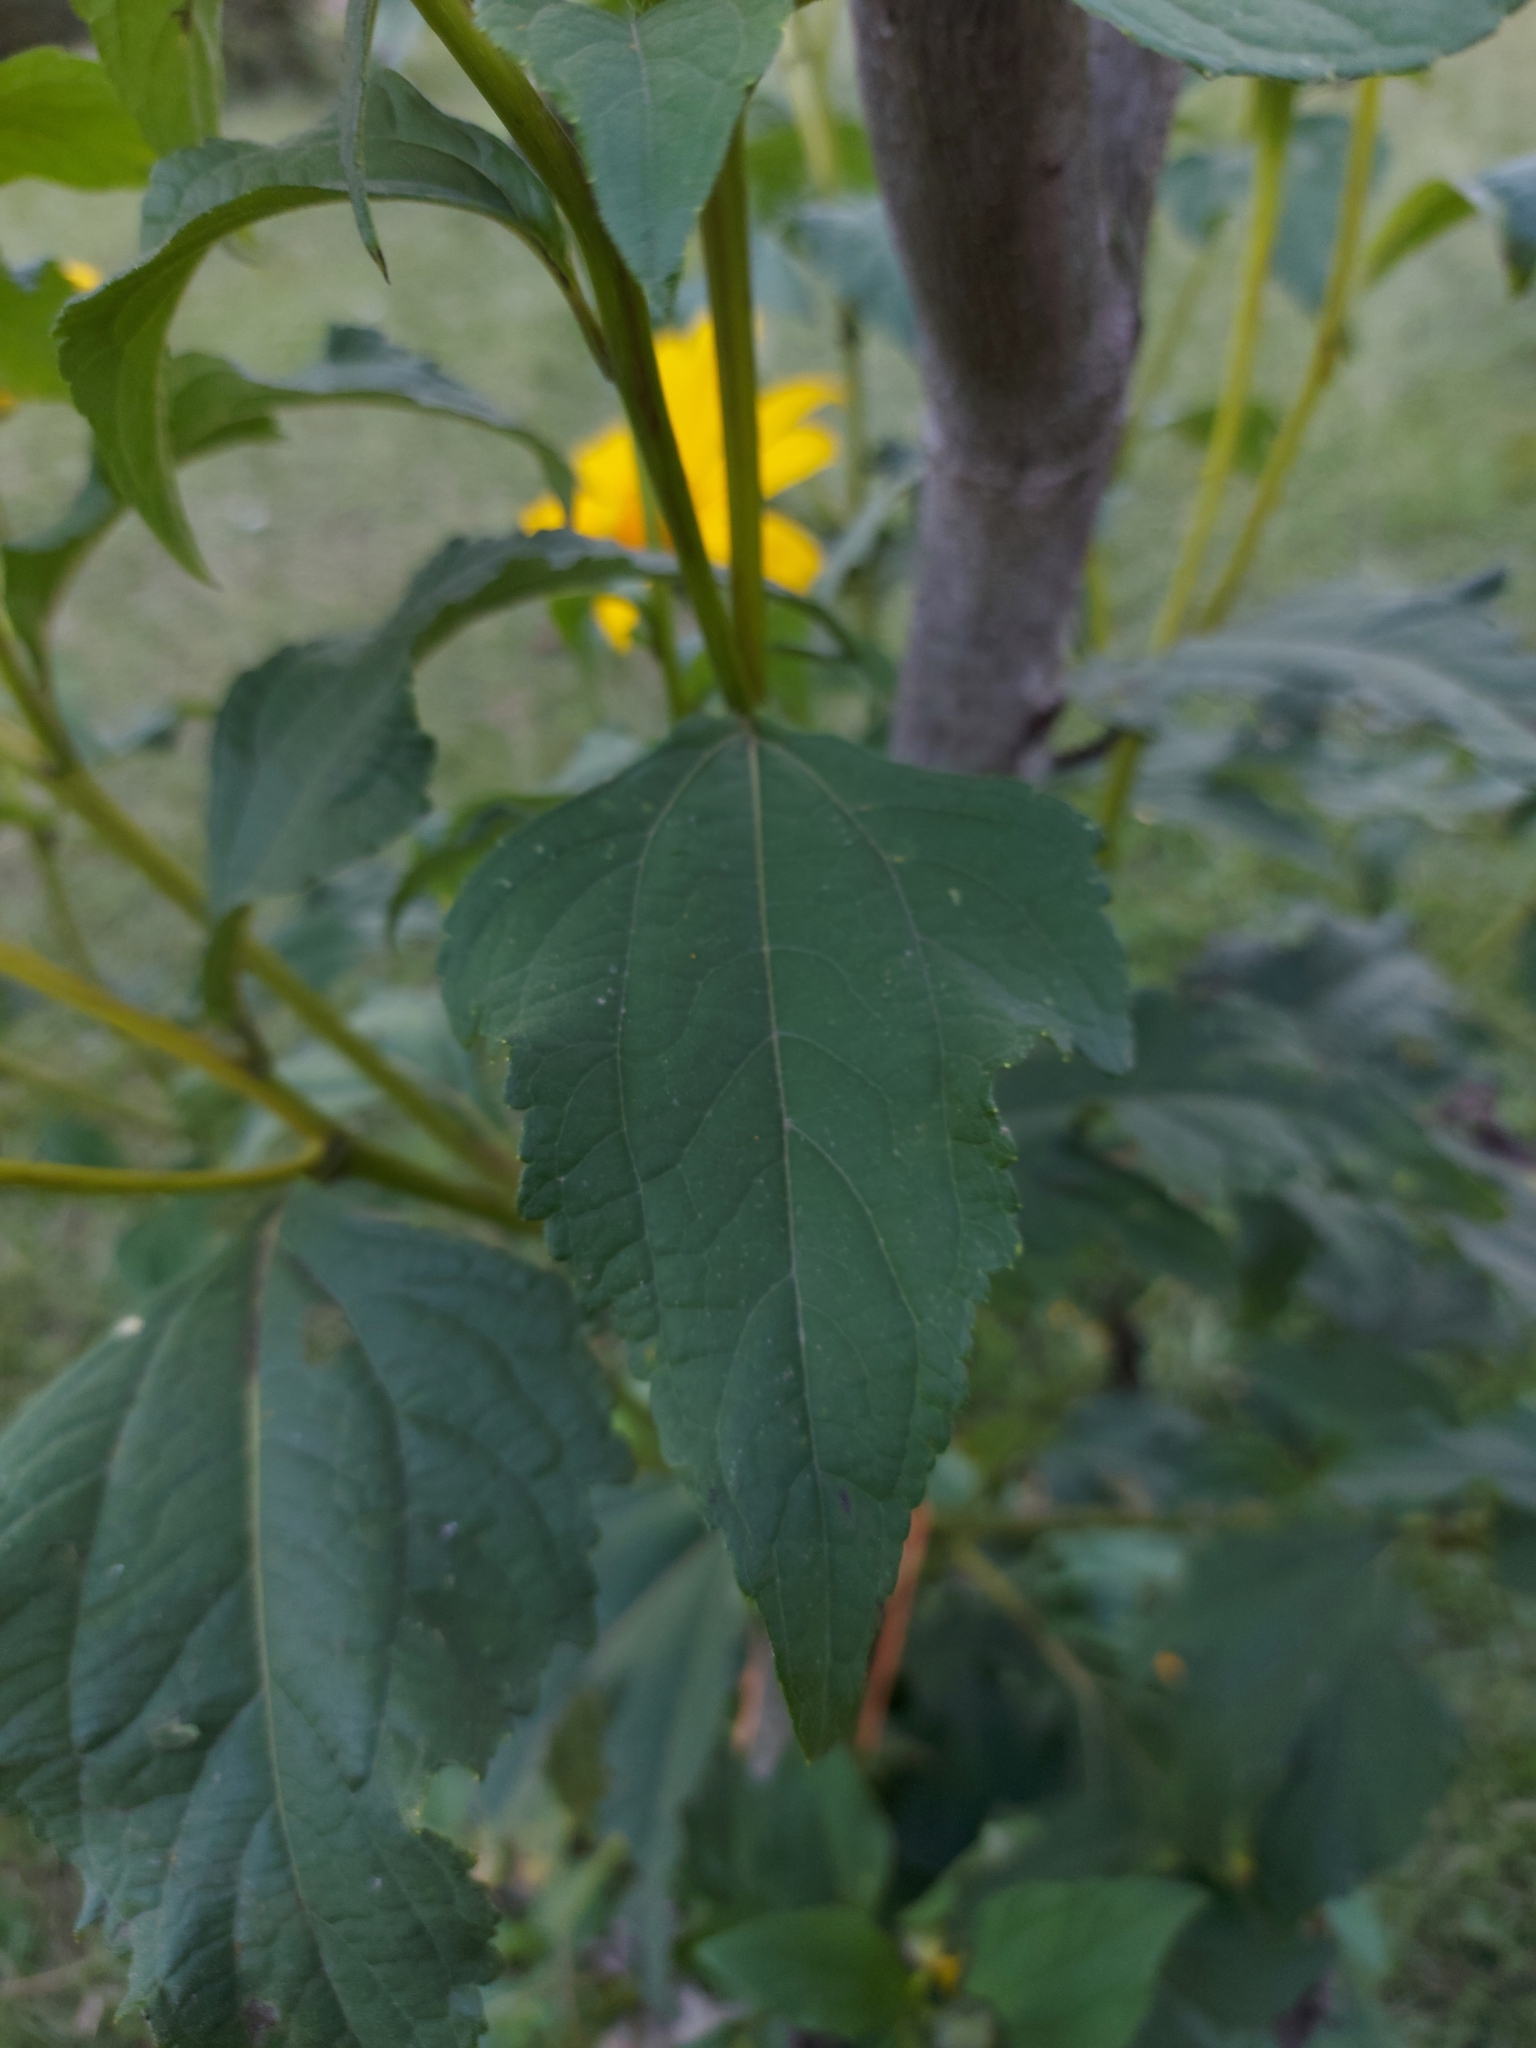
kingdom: Plantae
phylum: Tracheophyta
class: Magnoliopsida
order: Asterales
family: Asteraceae
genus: Tithonia
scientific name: Tithonia diversifolia
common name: Tree marigold
